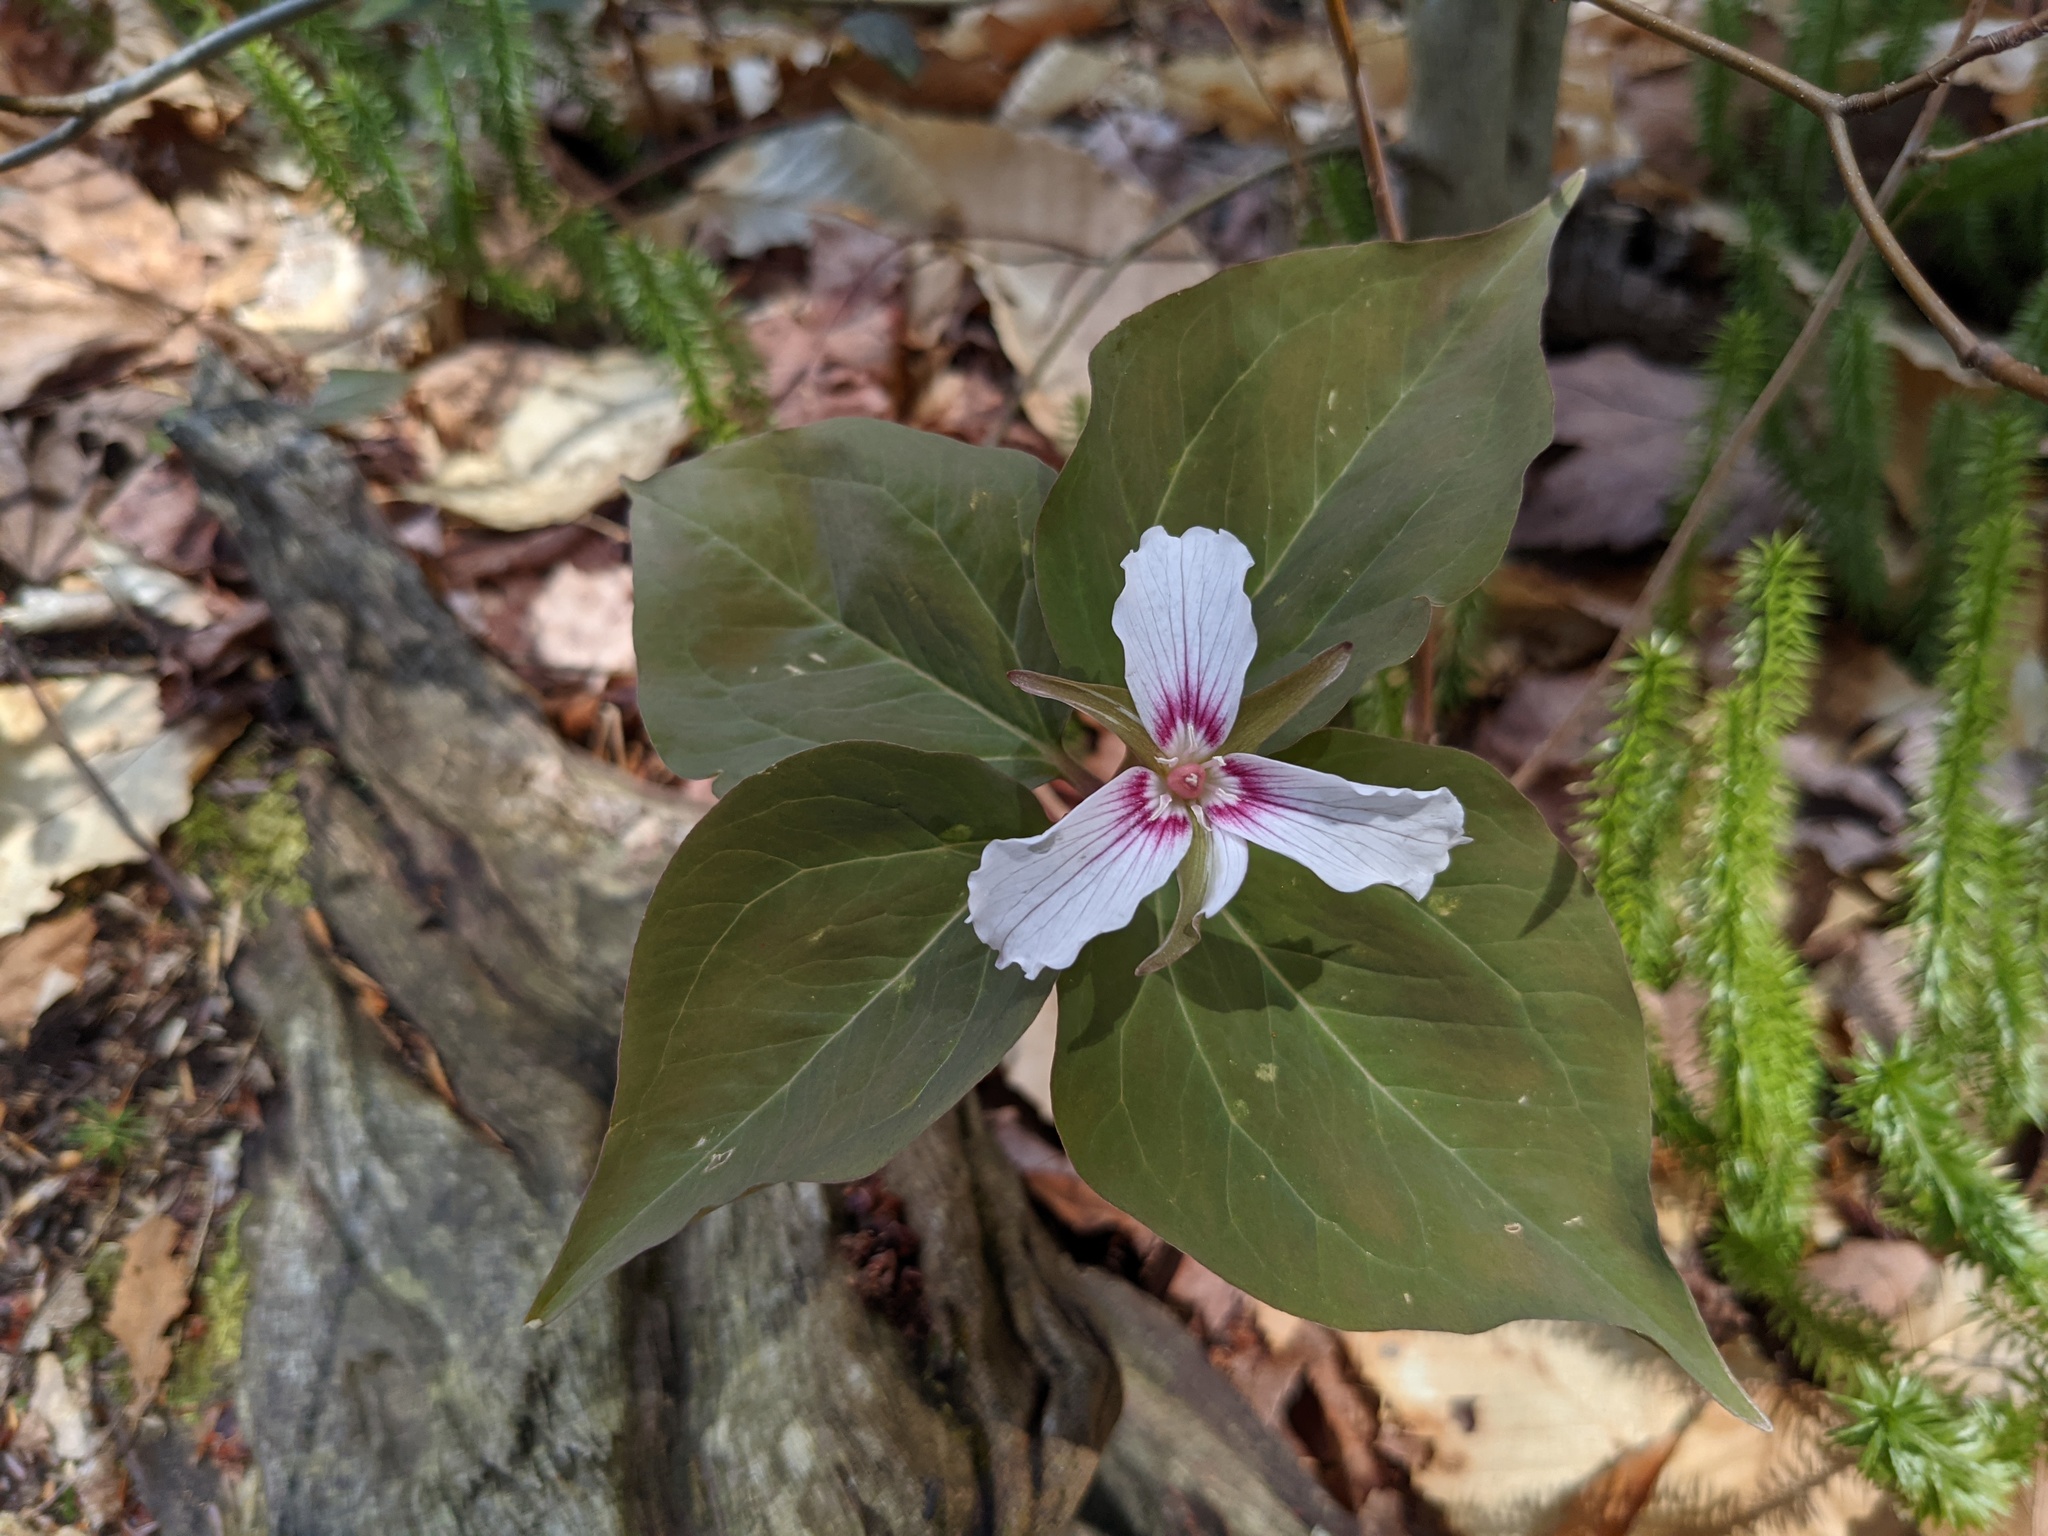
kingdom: Plantae
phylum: Tracheophyta
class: Liliopsida
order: Liliales
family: Melanthiaceae
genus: Trillium
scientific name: Trillium undulatum
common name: Paint trillium
